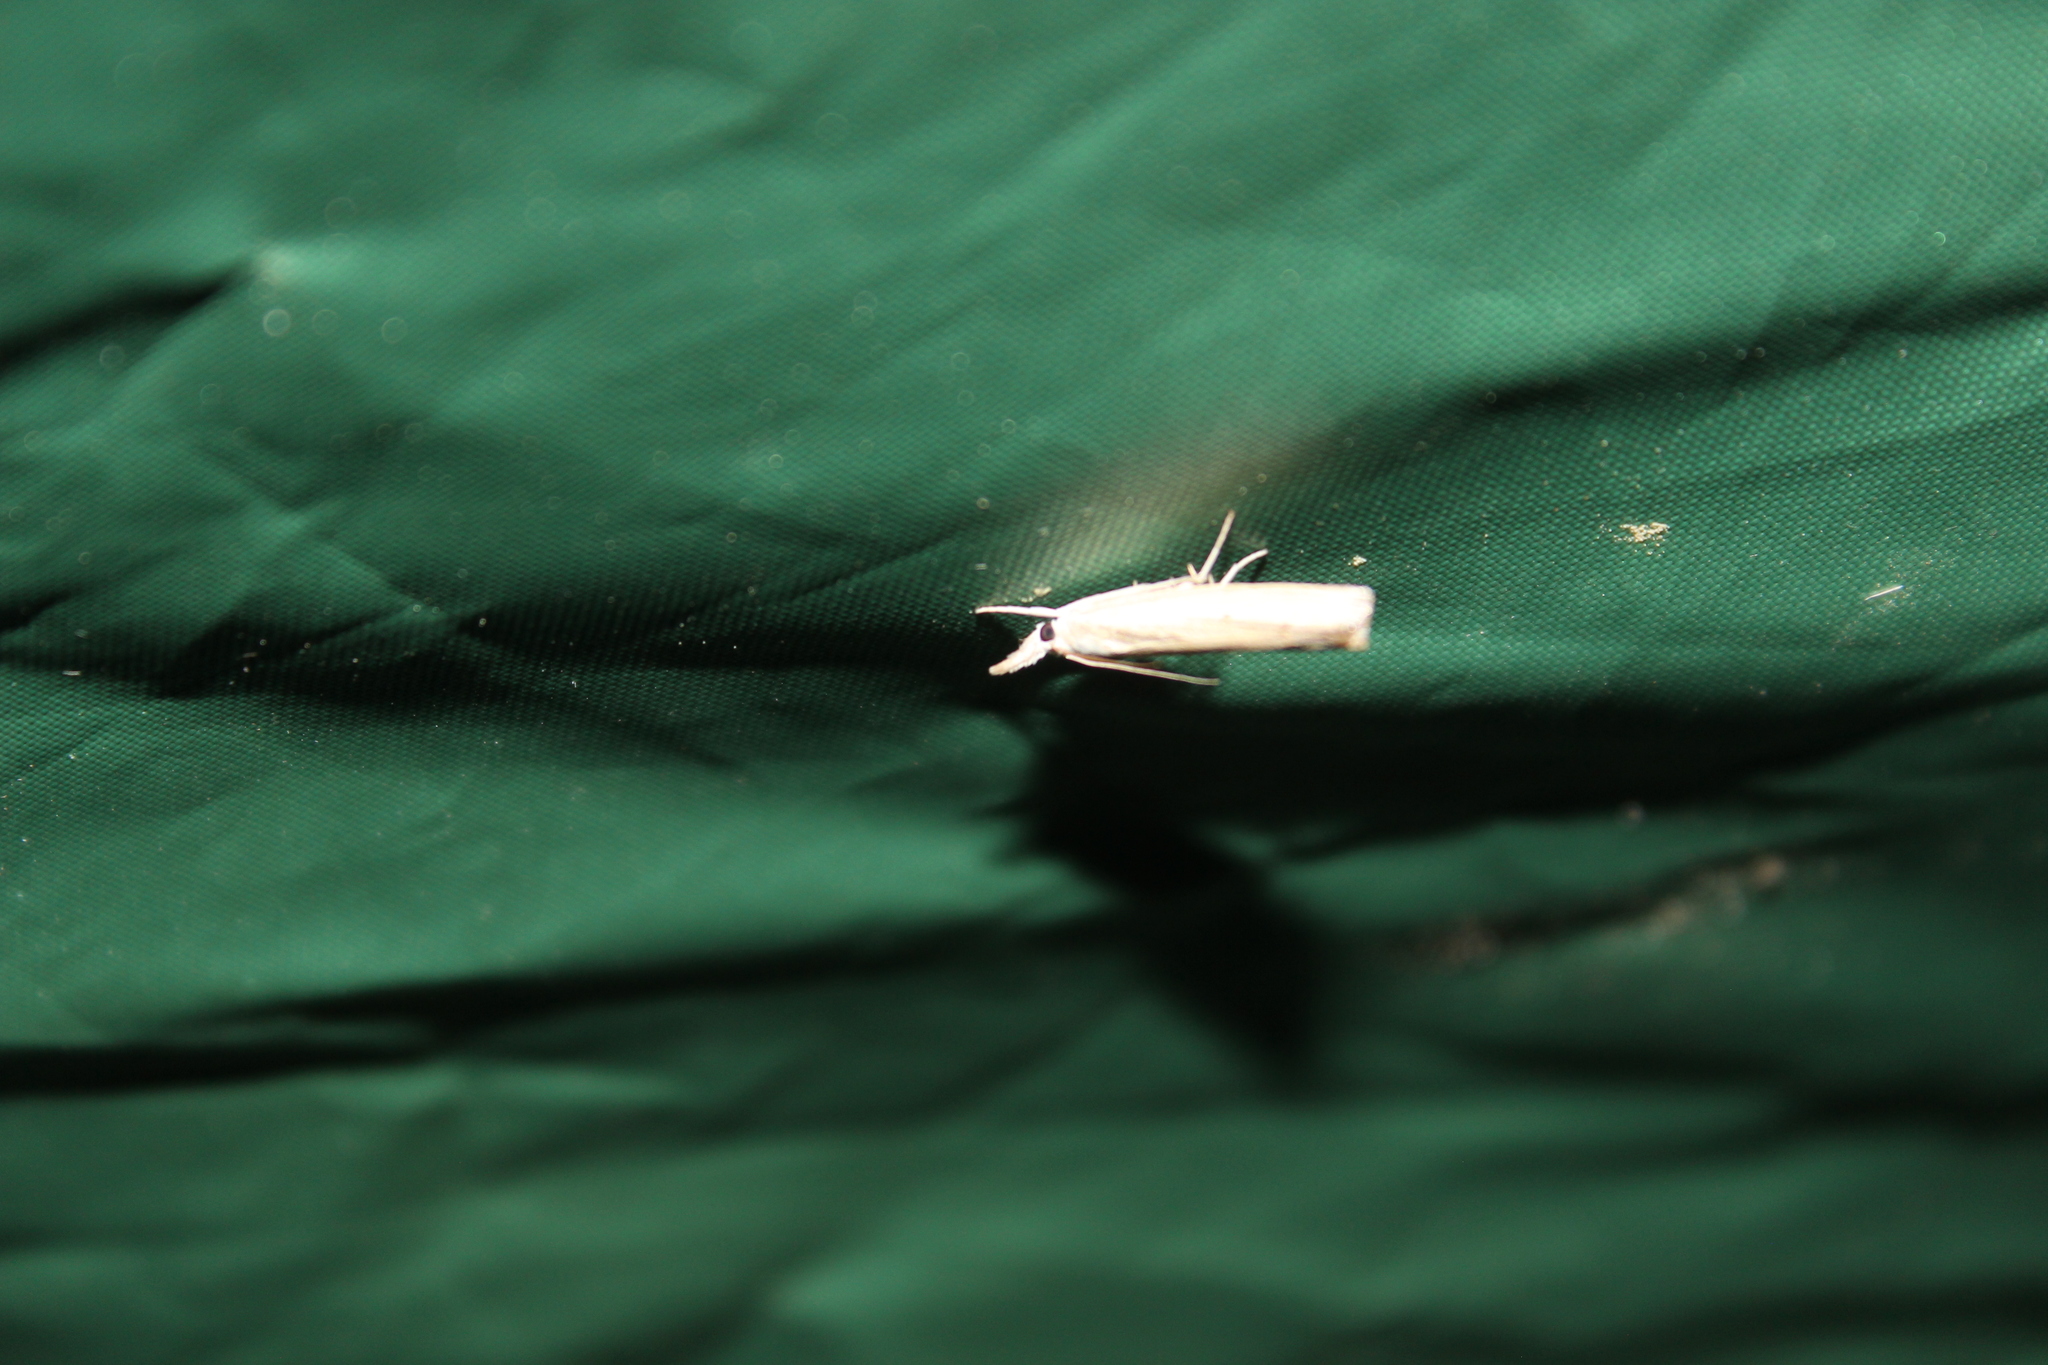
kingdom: Animalia
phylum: Arthropoda
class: Insecta
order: Lepidoptera
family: Crambidae
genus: Culladia
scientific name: Culladia cuneiferellus
